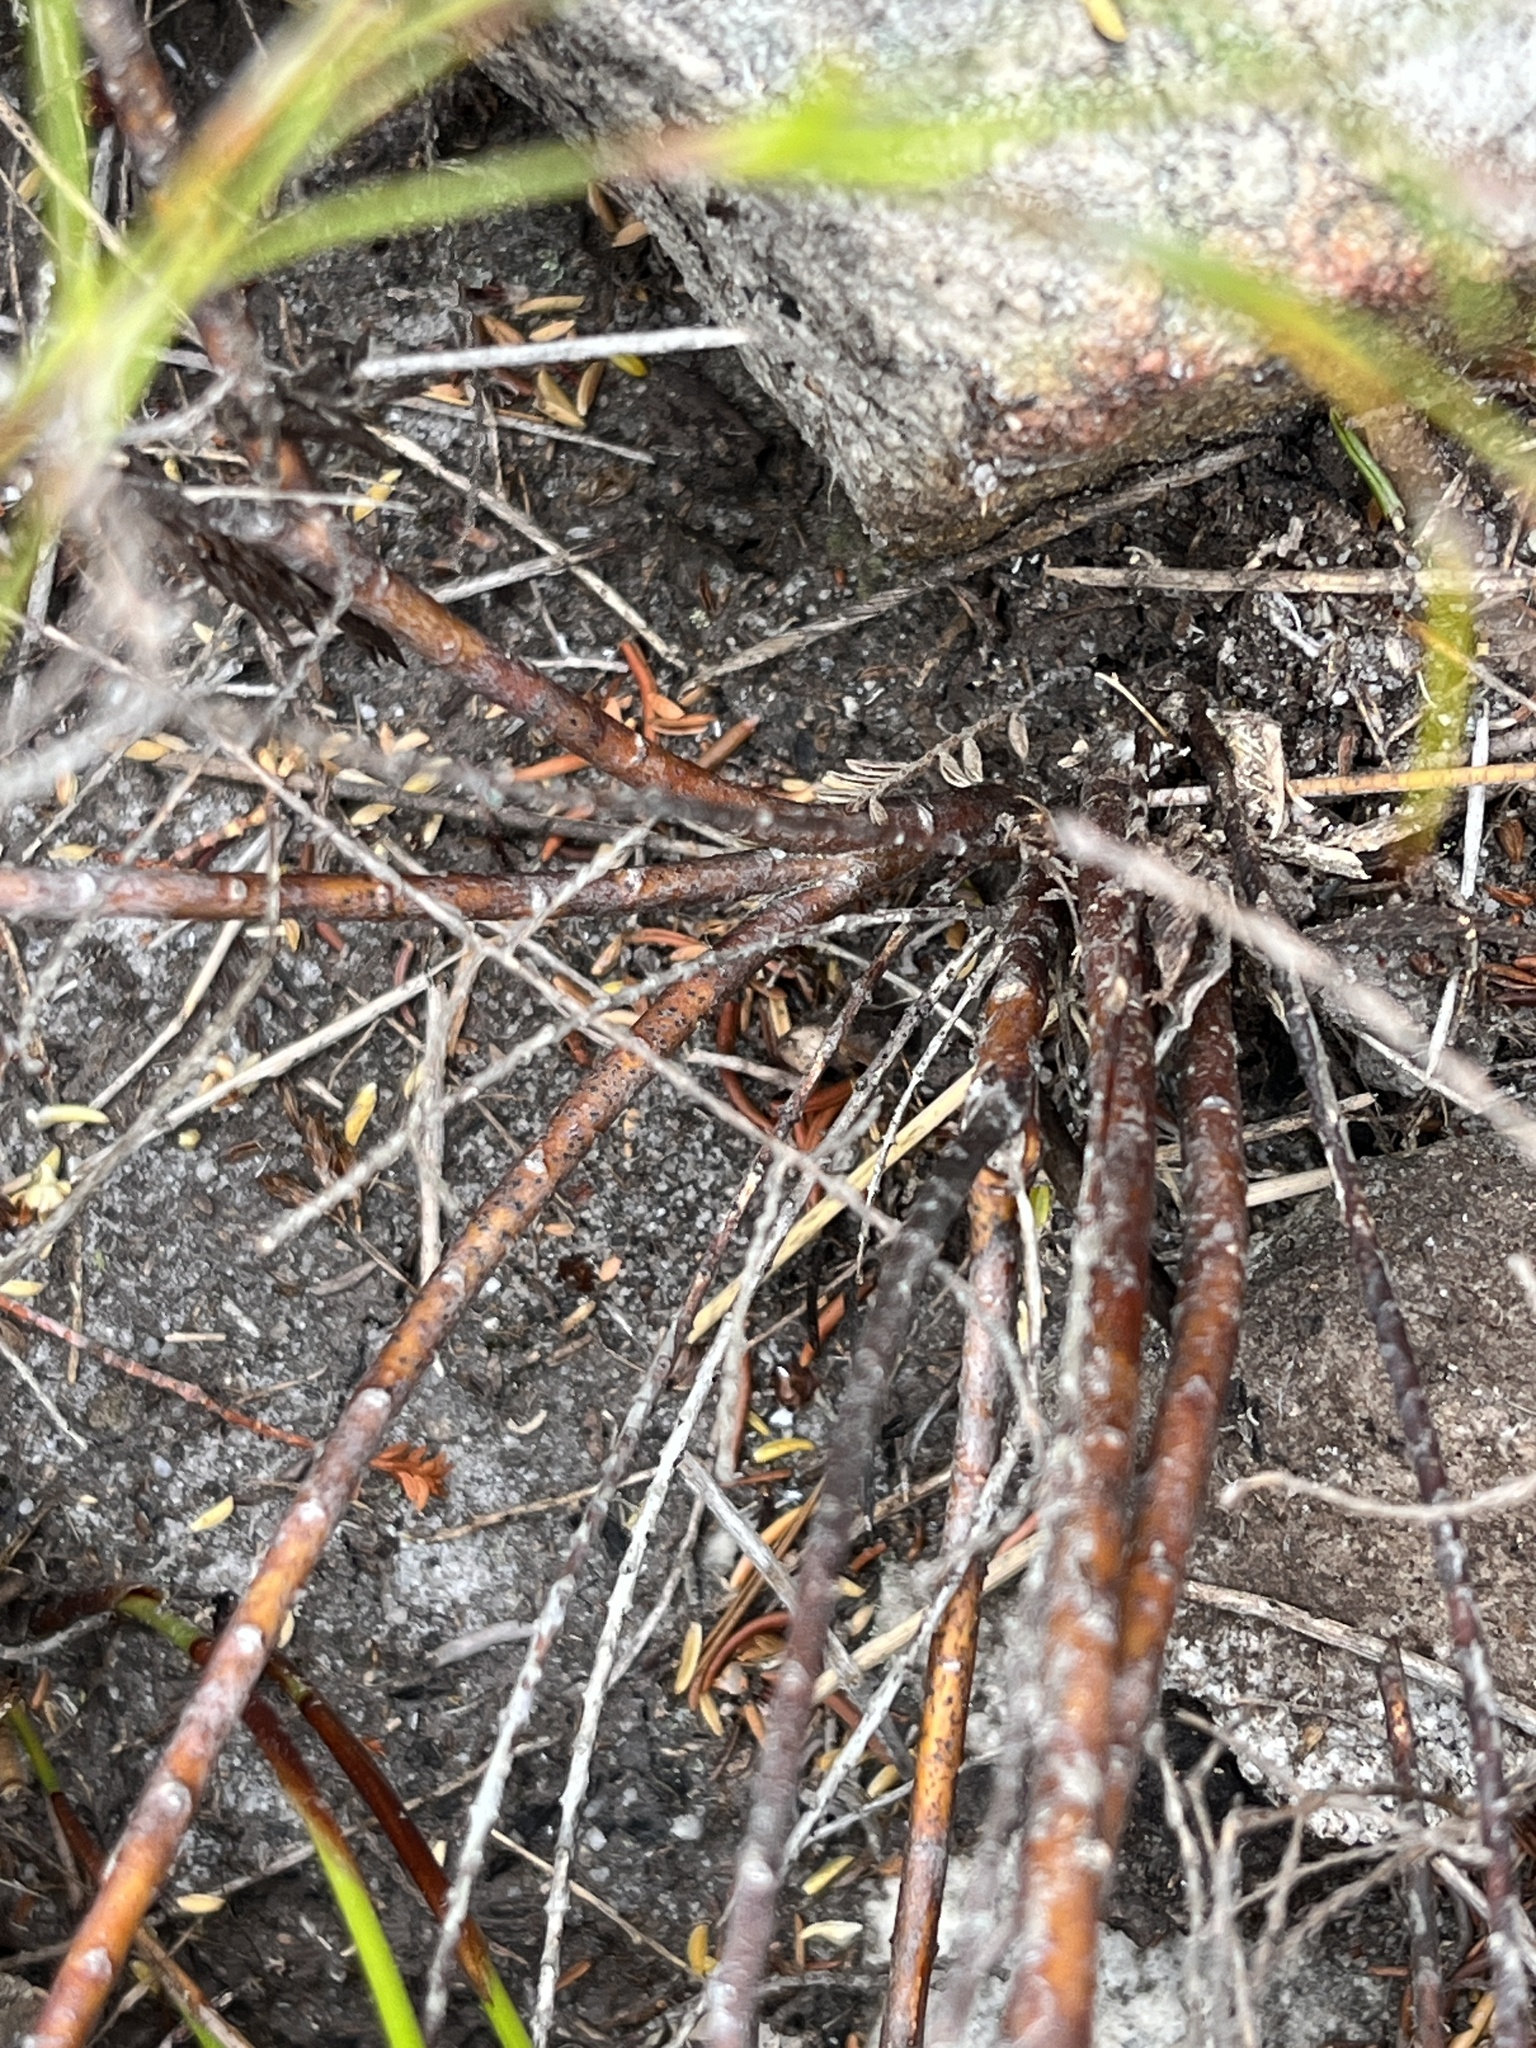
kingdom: Plantae
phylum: Tracheophyta
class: Magnoliopsida
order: Sapindales
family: Rutaceae
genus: Diosma
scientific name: Diosma oppositifolia
